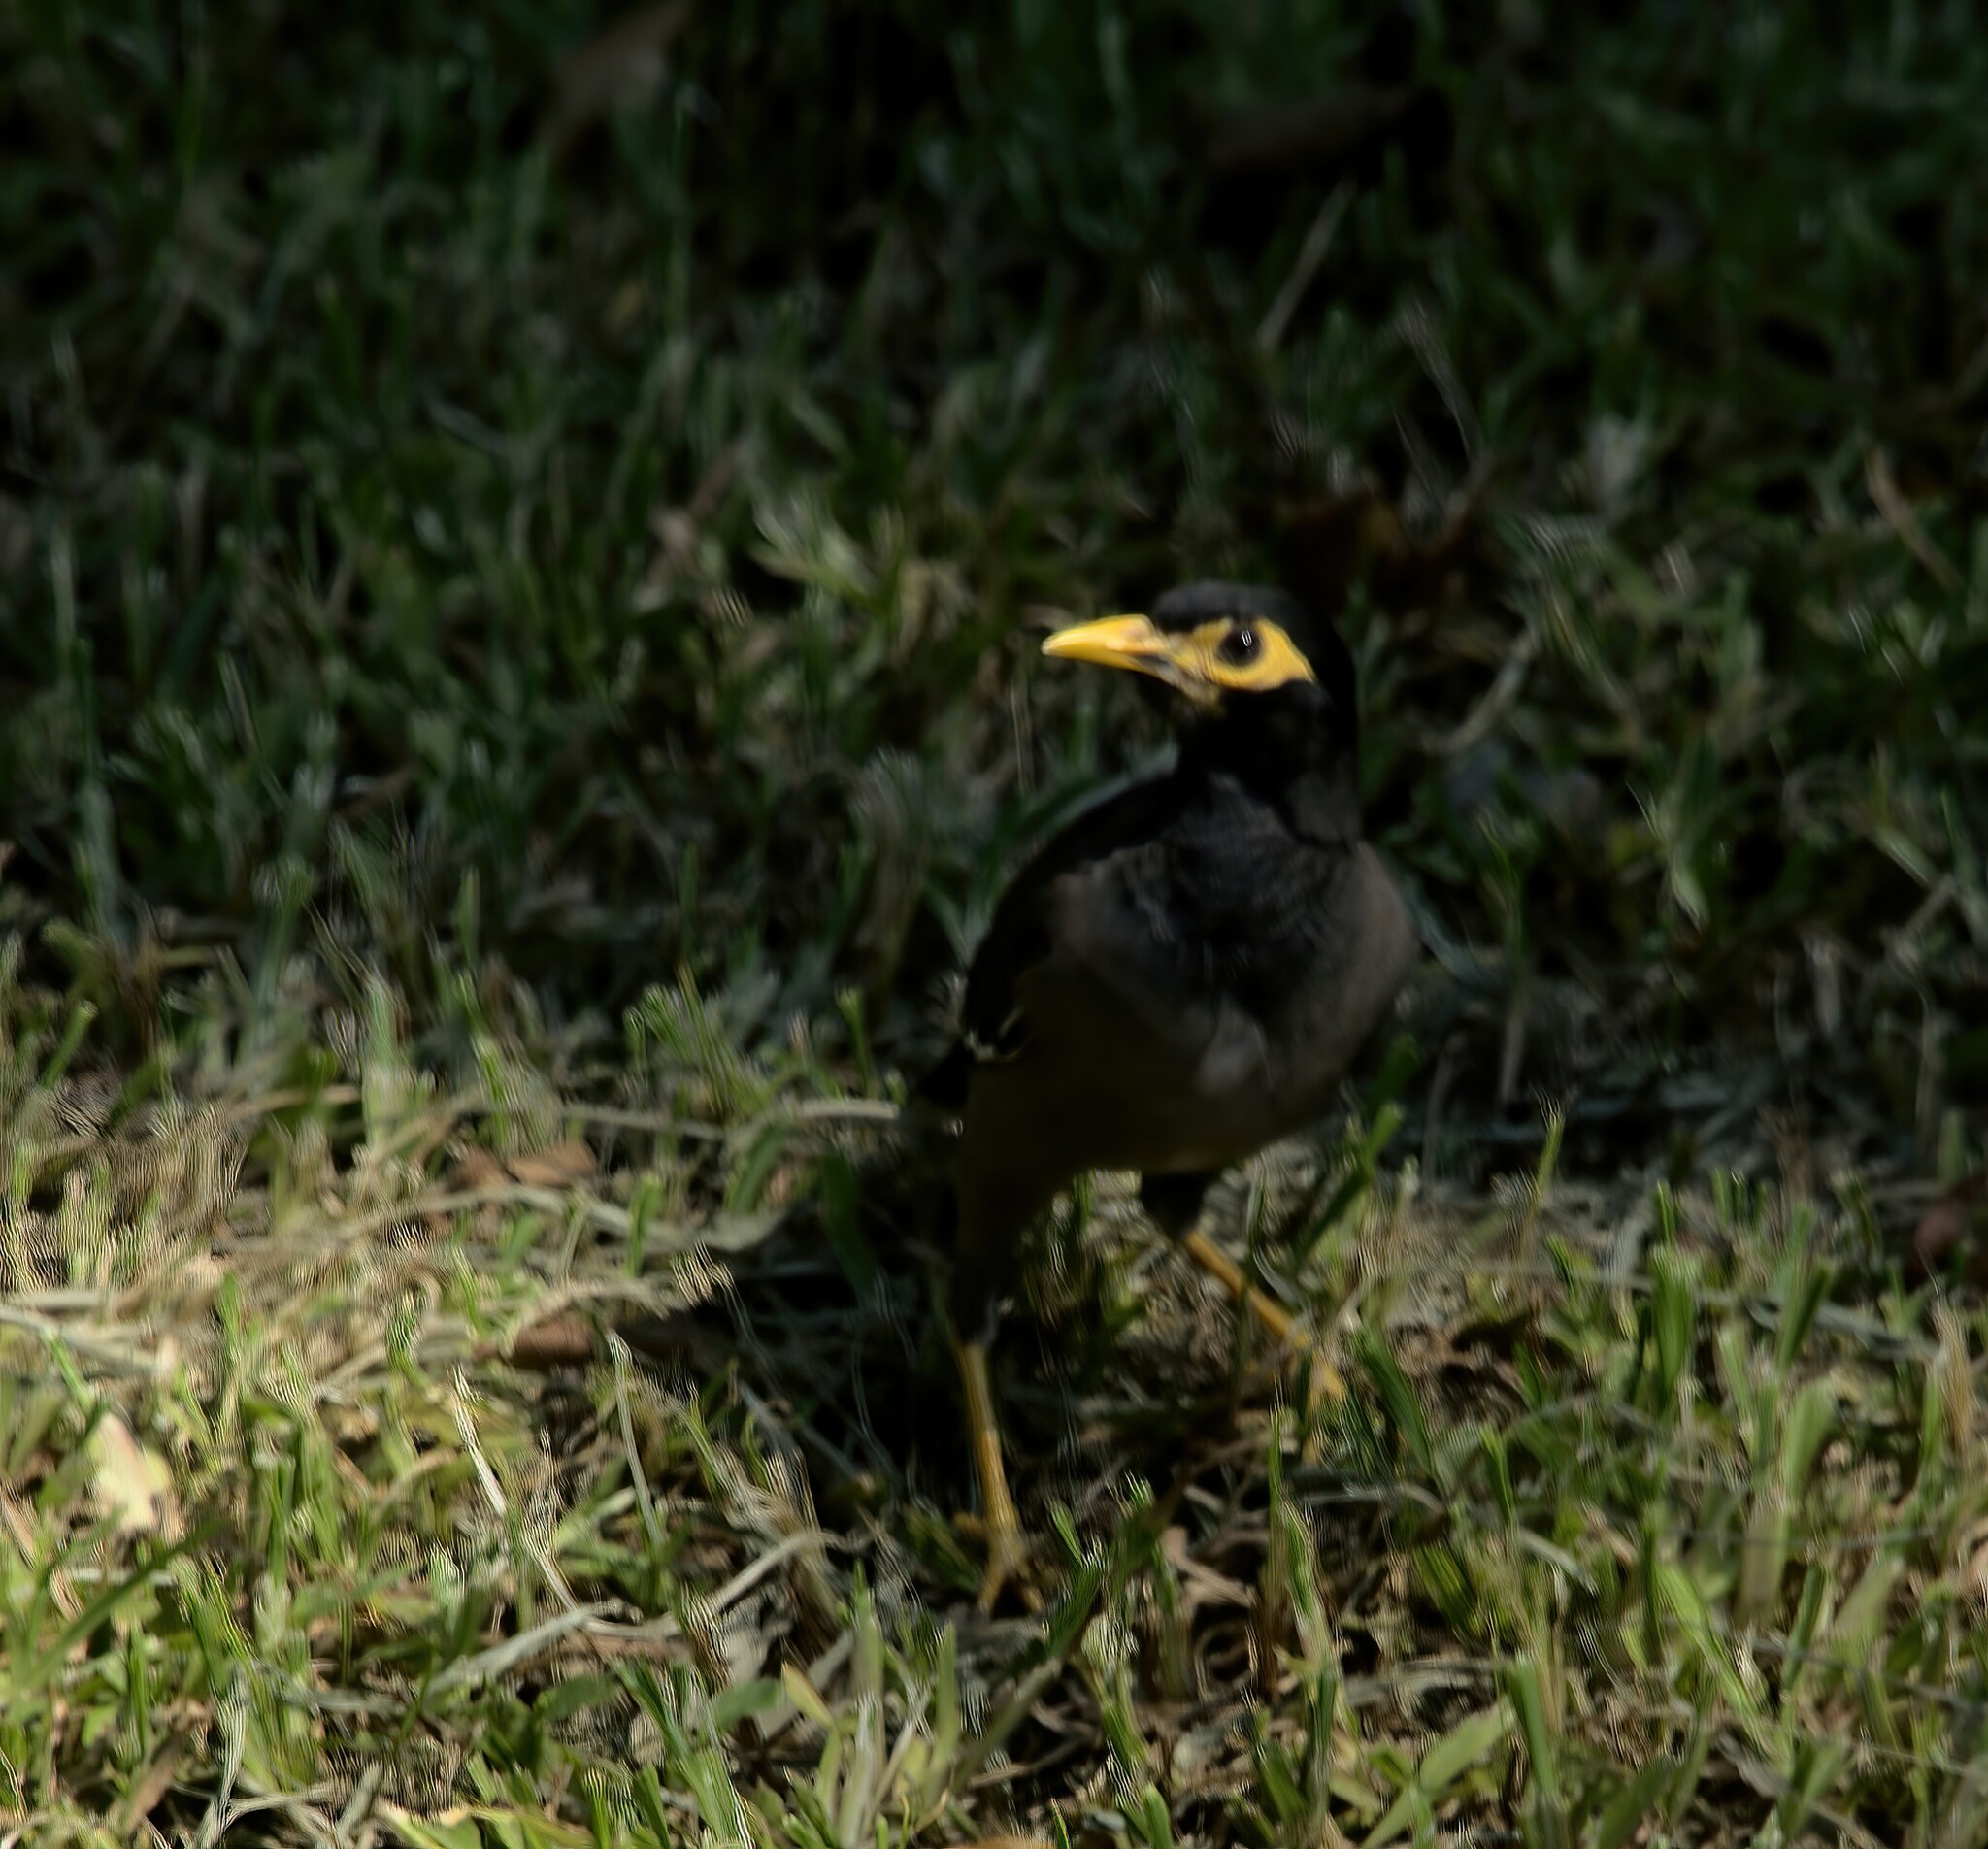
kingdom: Animalia
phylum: Chordata
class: Aves
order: Passeriformes
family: Sturnidae
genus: Acridotheres
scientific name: Acridotheres tristis
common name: Common myna
